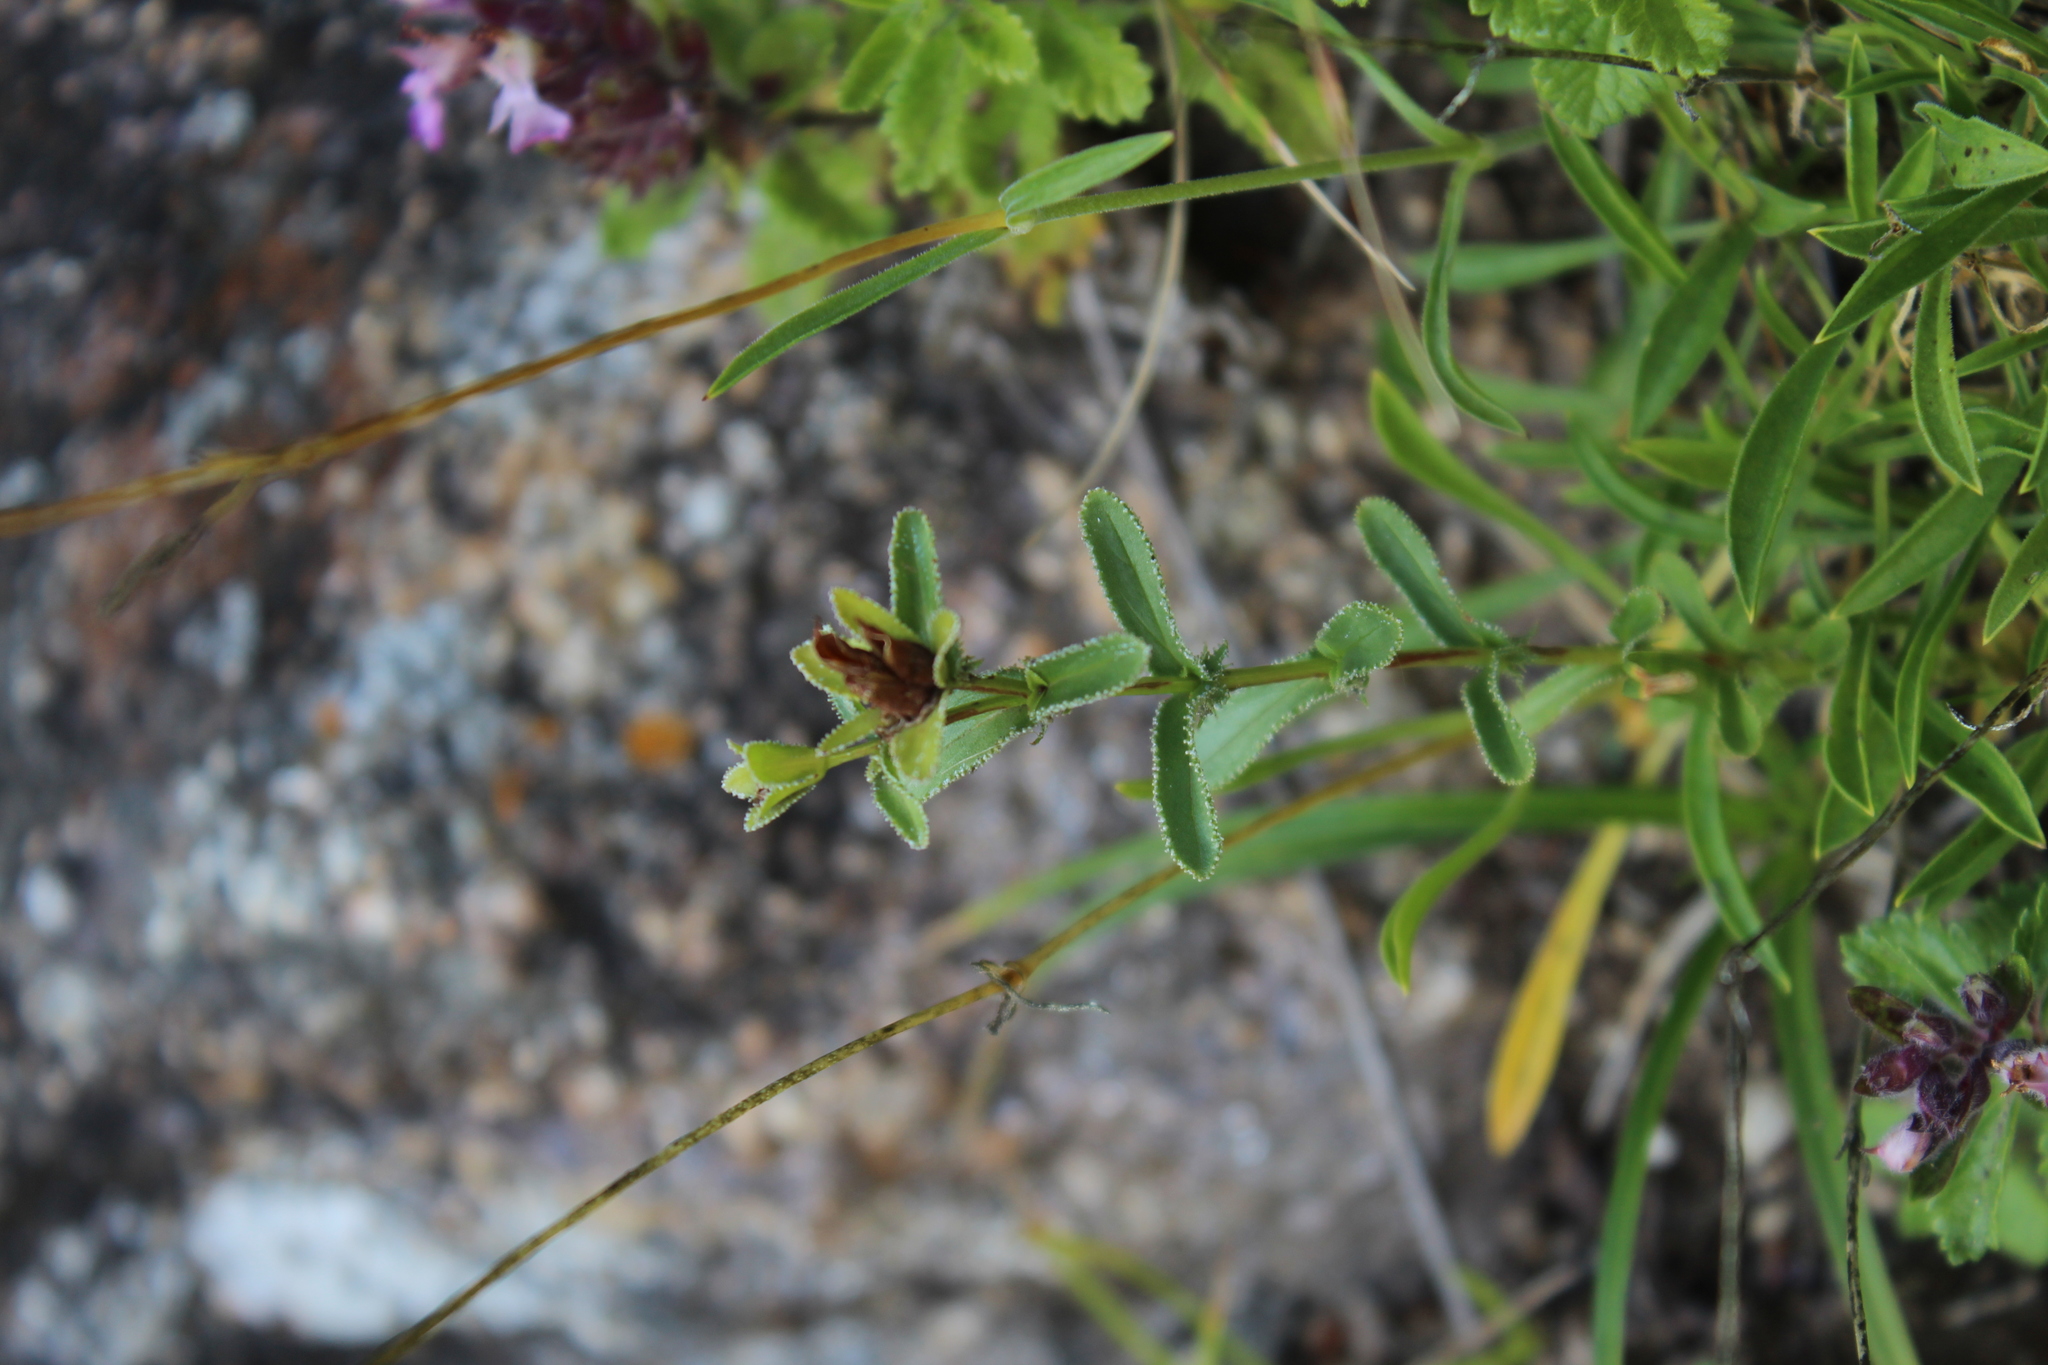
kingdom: Plantae
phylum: Tracheophyta
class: Magnoliopsida
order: Malpighiales
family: Hypericaceae
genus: Hypericum
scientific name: Hypericum orientale
